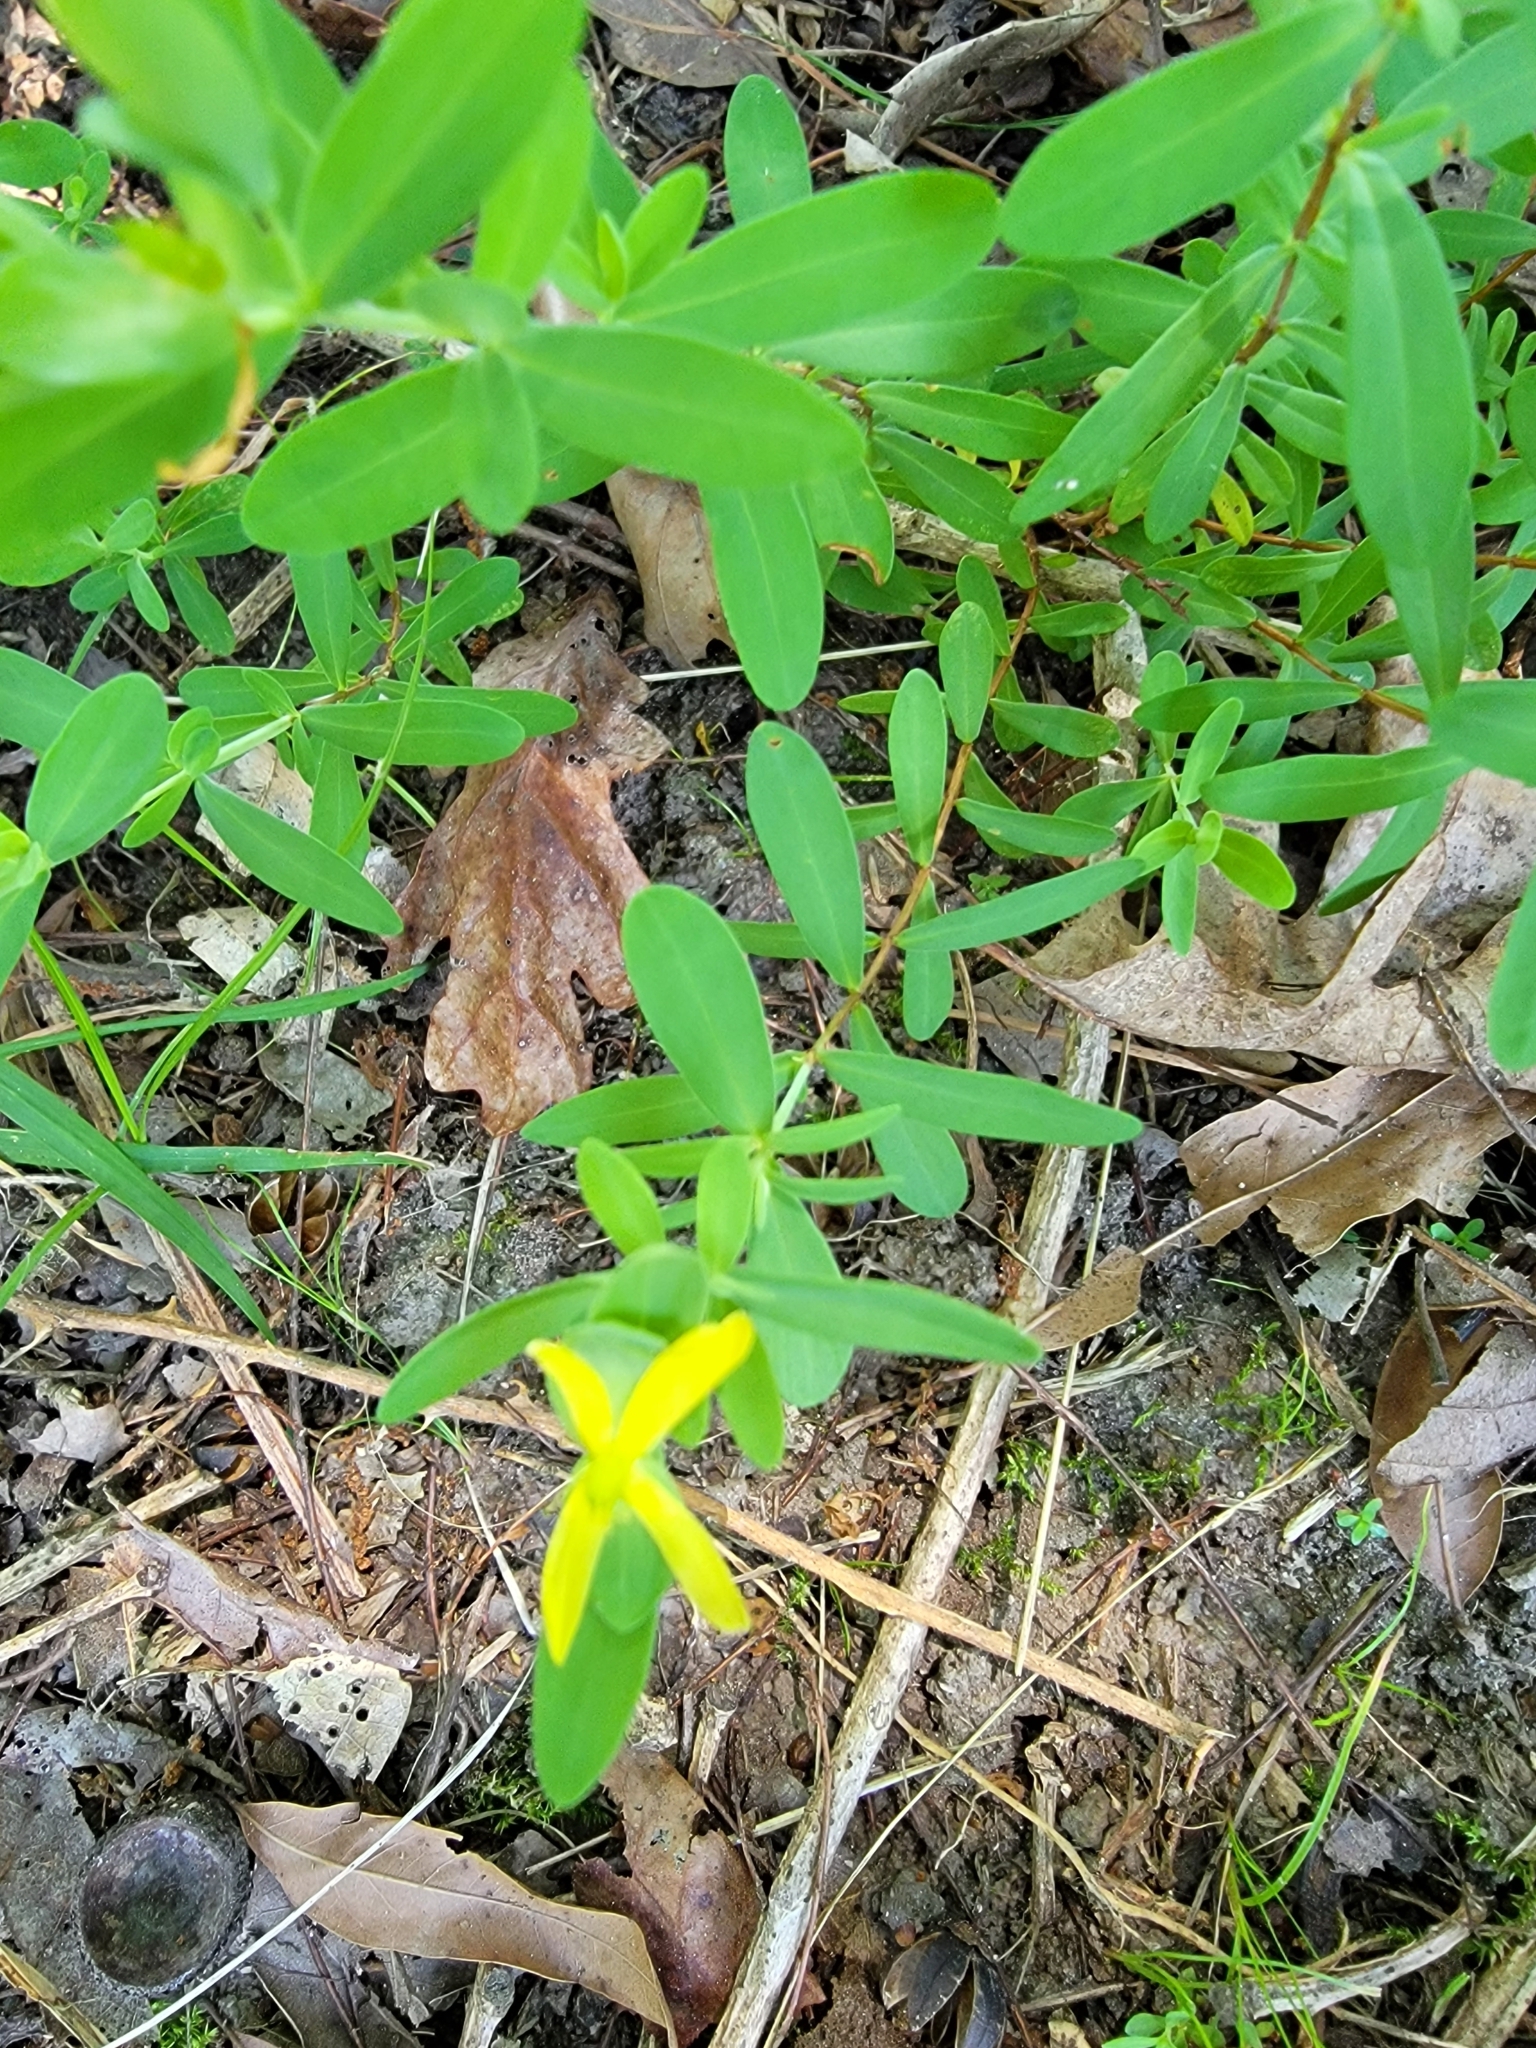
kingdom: Plantae
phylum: Tracheophyta
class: Magnoliopsida
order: Malpighiales
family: Hypericaceae
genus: Hypericum
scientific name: Hypericum hypericoides
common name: St. andrew's cross
